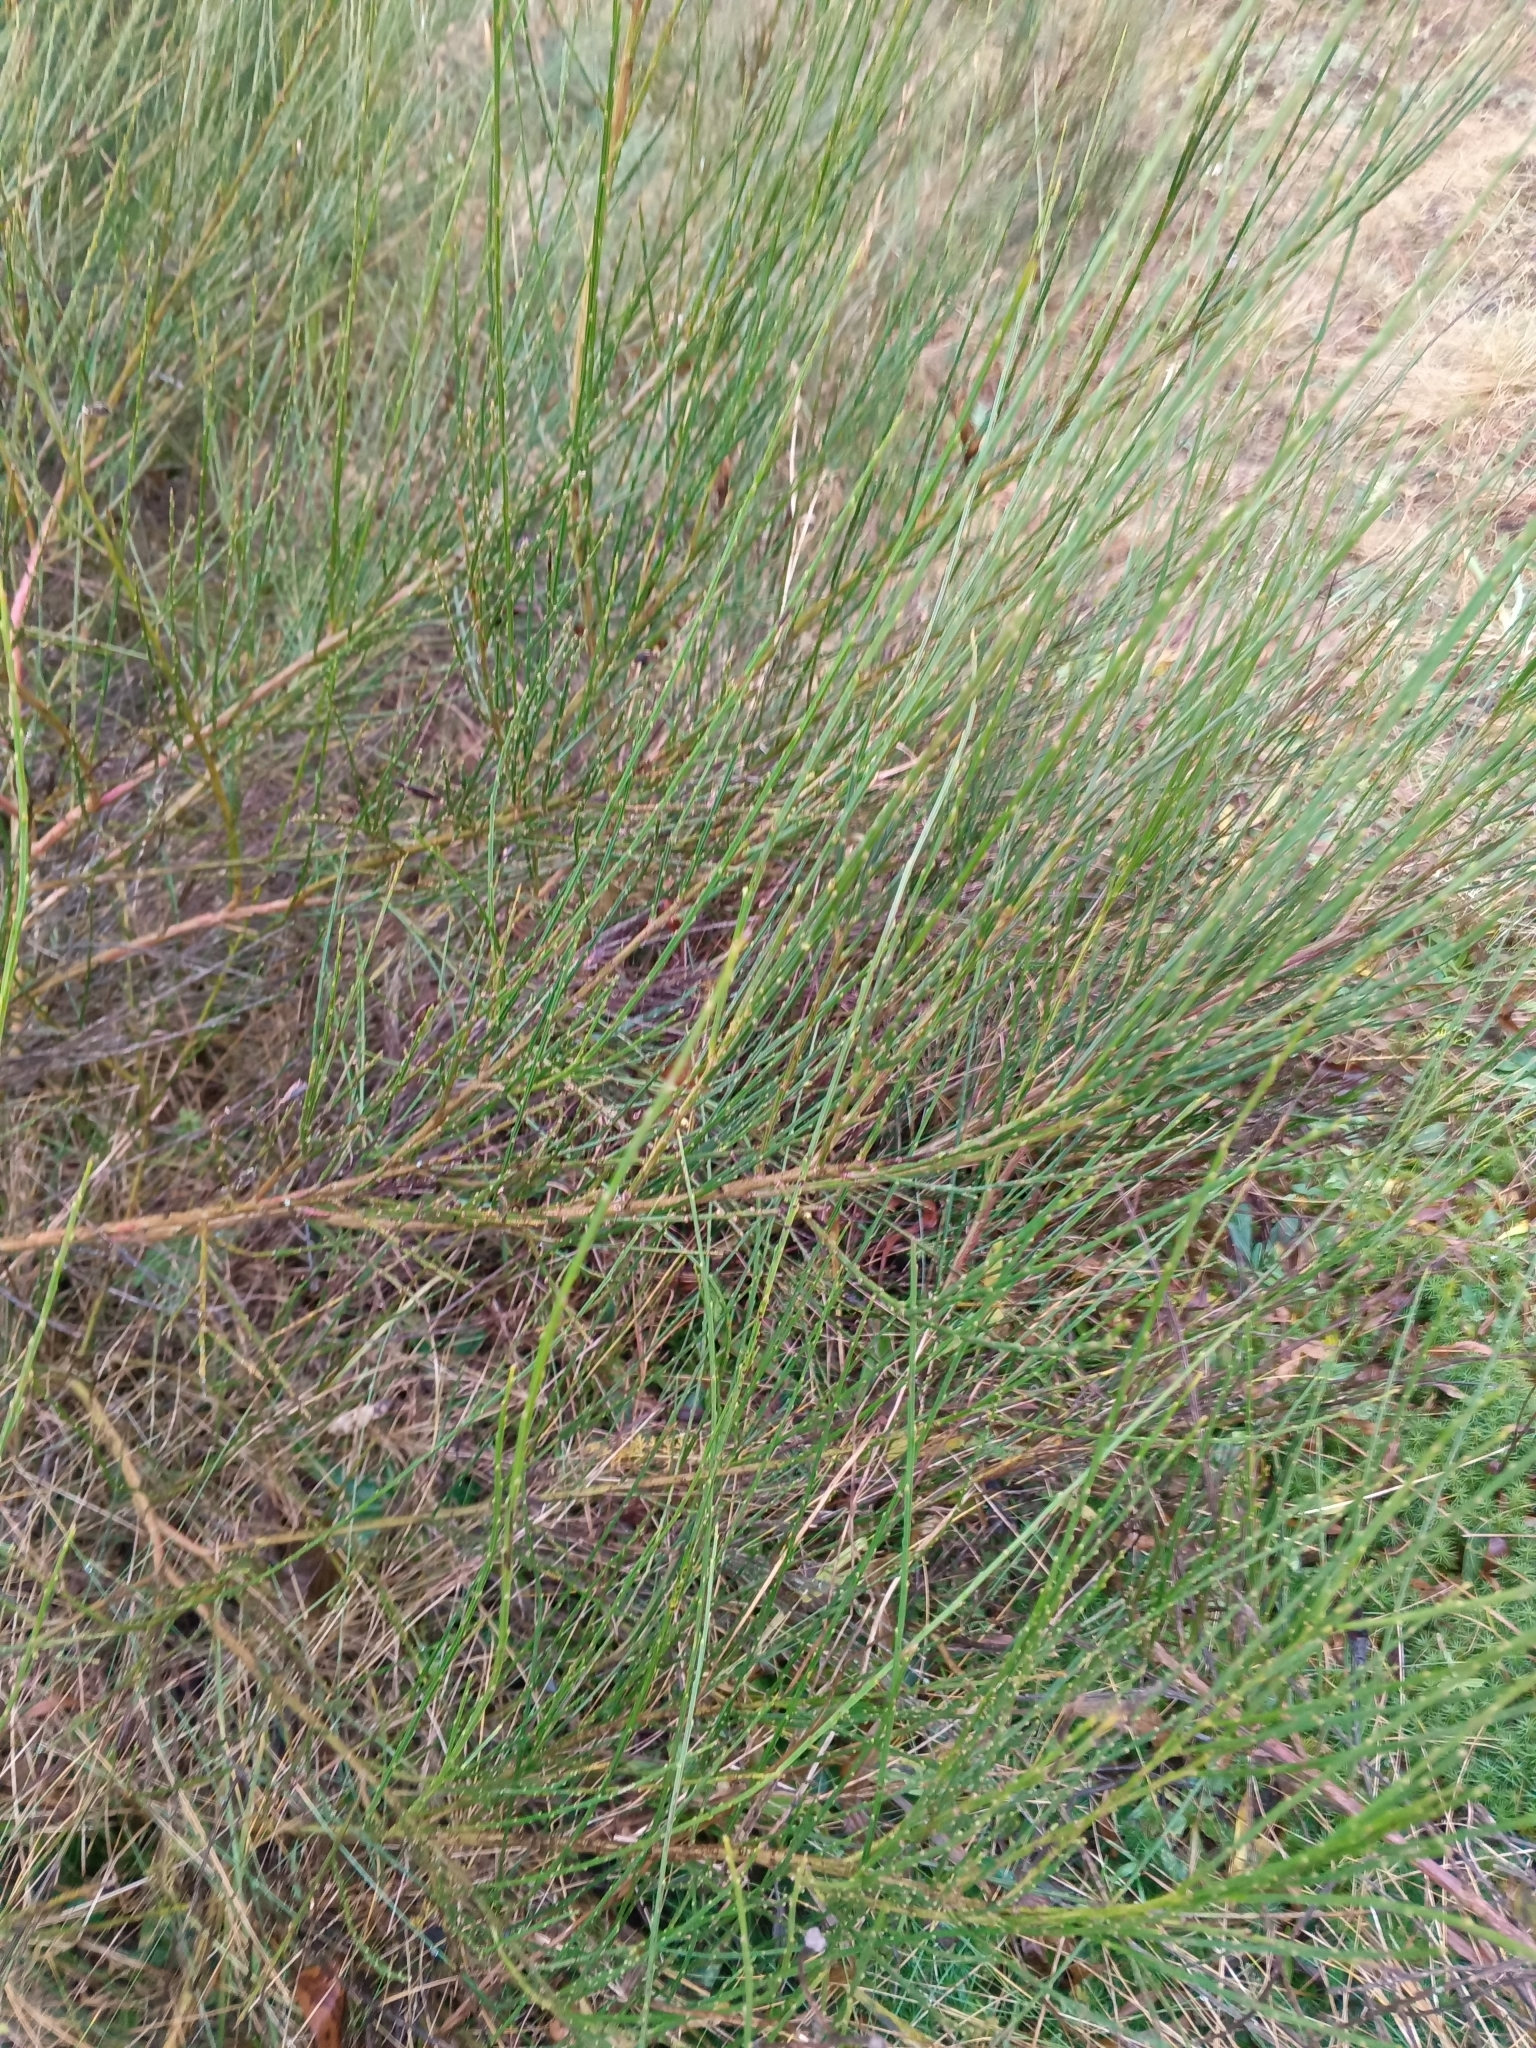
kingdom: Plantae
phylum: Tracheophyta
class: Magnoliopsida
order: Fabales
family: Fabaceae
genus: Cytisus
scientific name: Cytisus scoparius
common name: Scotch broom
